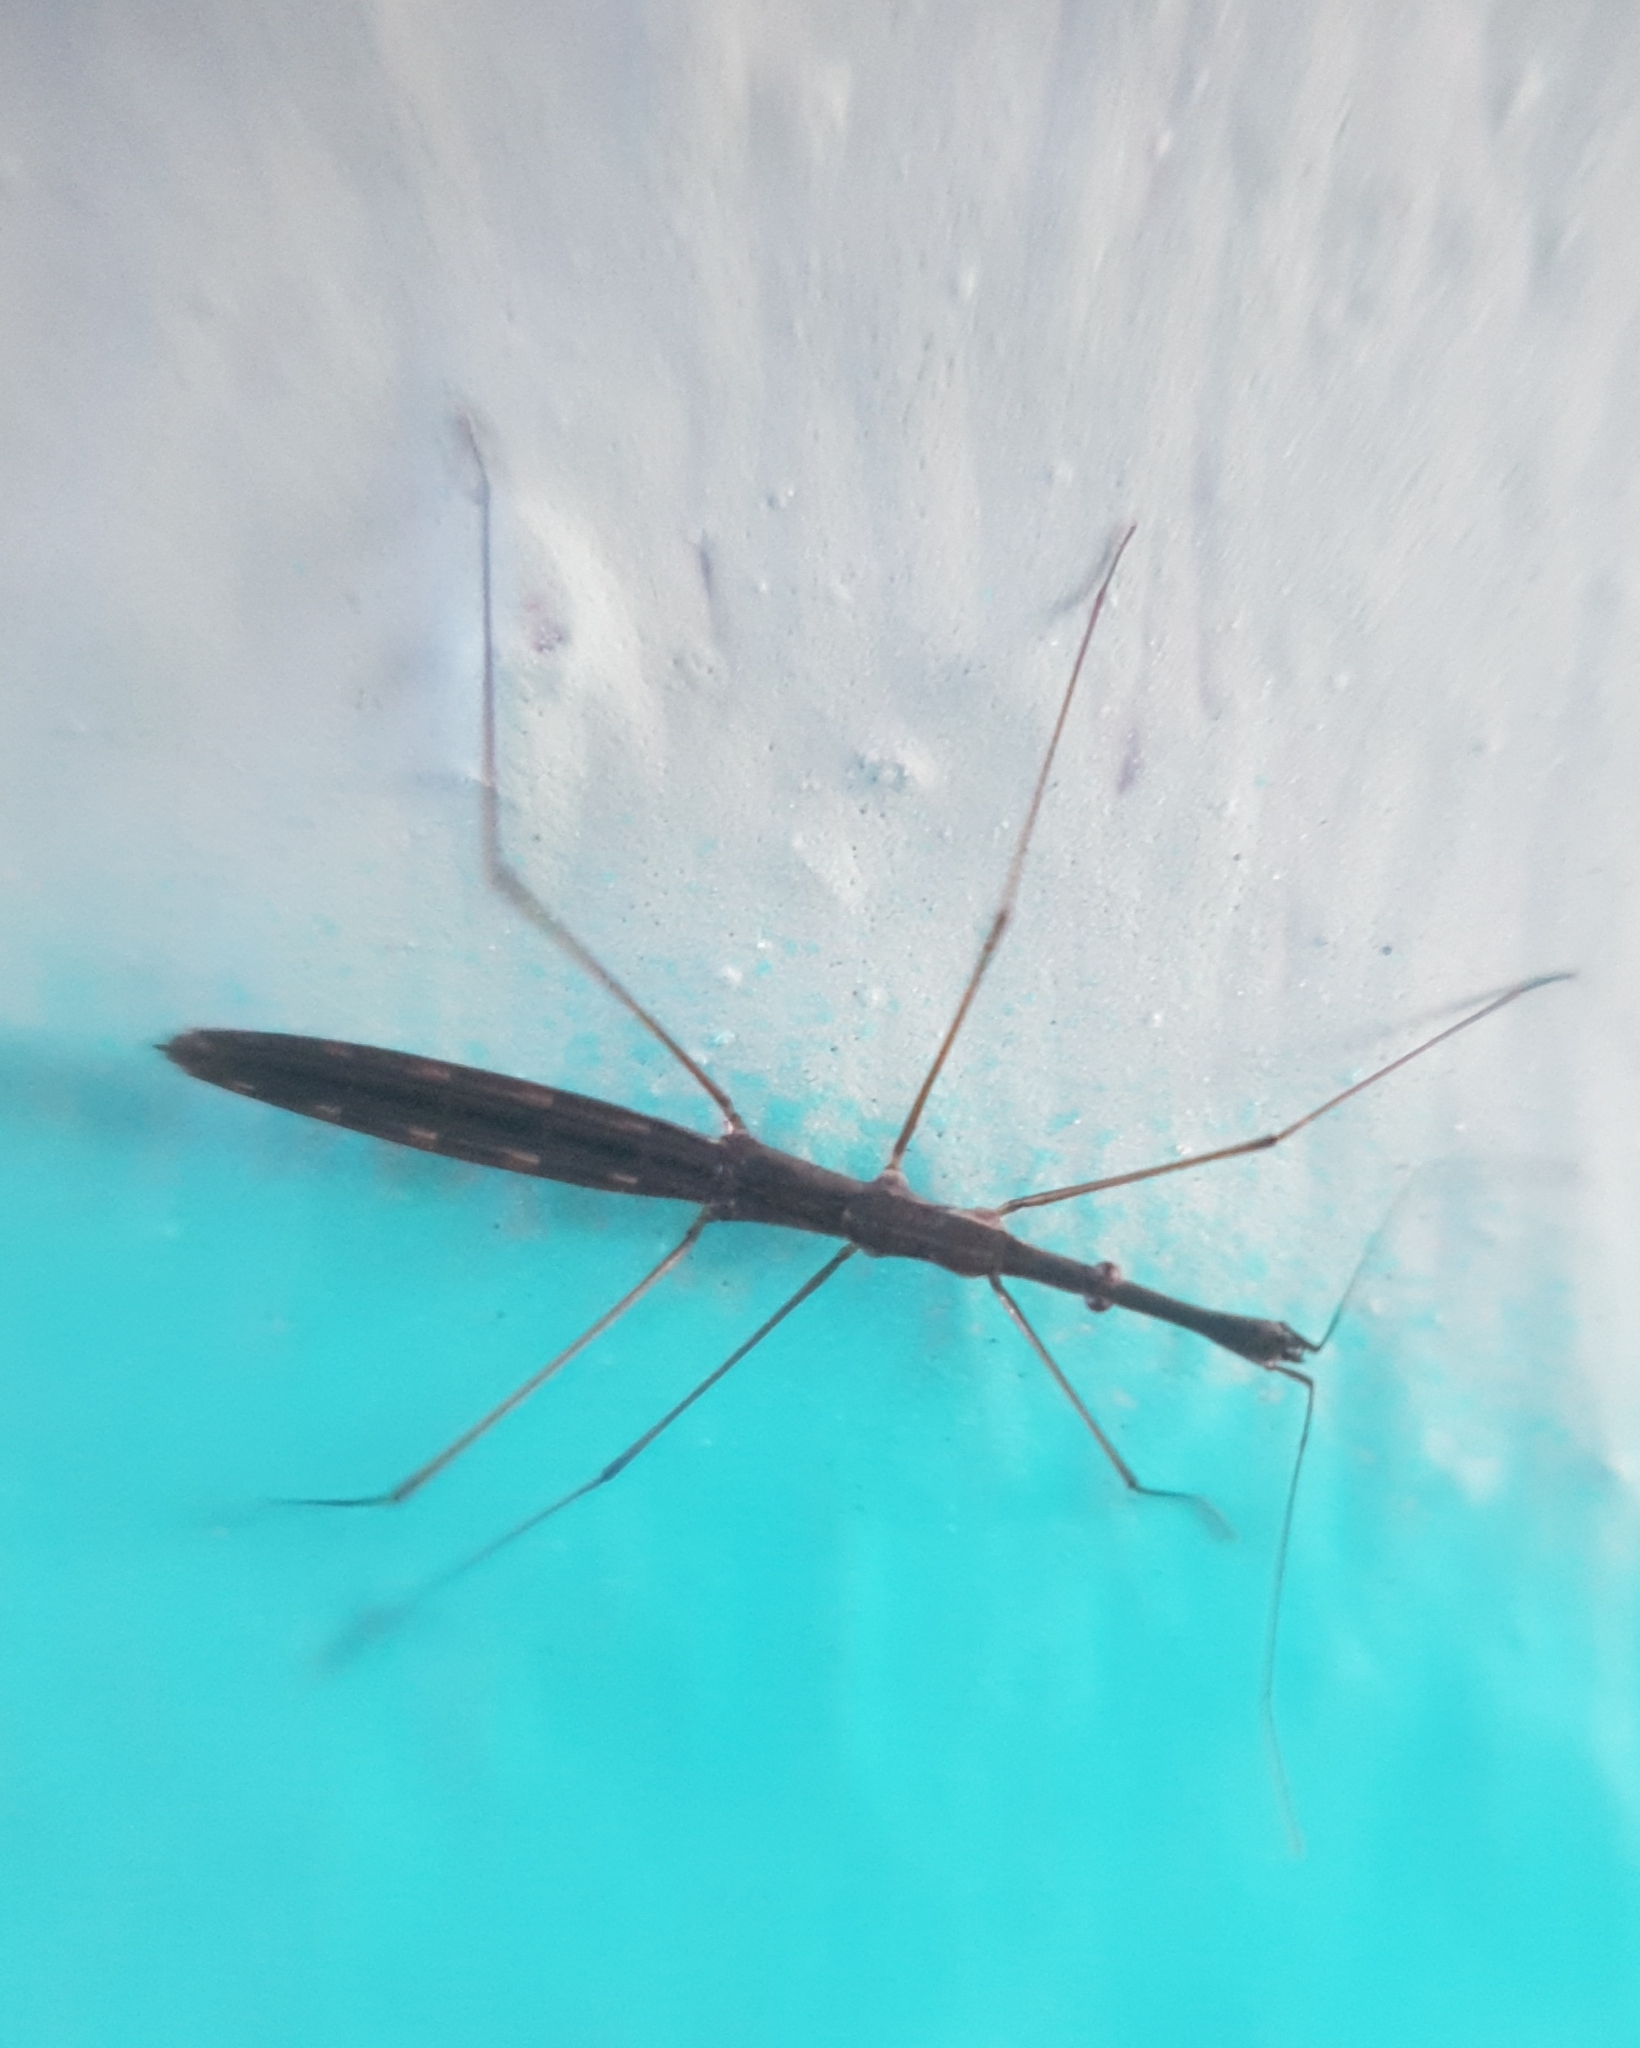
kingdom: Animalia
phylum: Arthropoda
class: Insecta
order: Hemiptera
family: Hydrometridae
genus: Hydrometra
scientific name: Hydrometra stagnorum
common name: Water measurer
